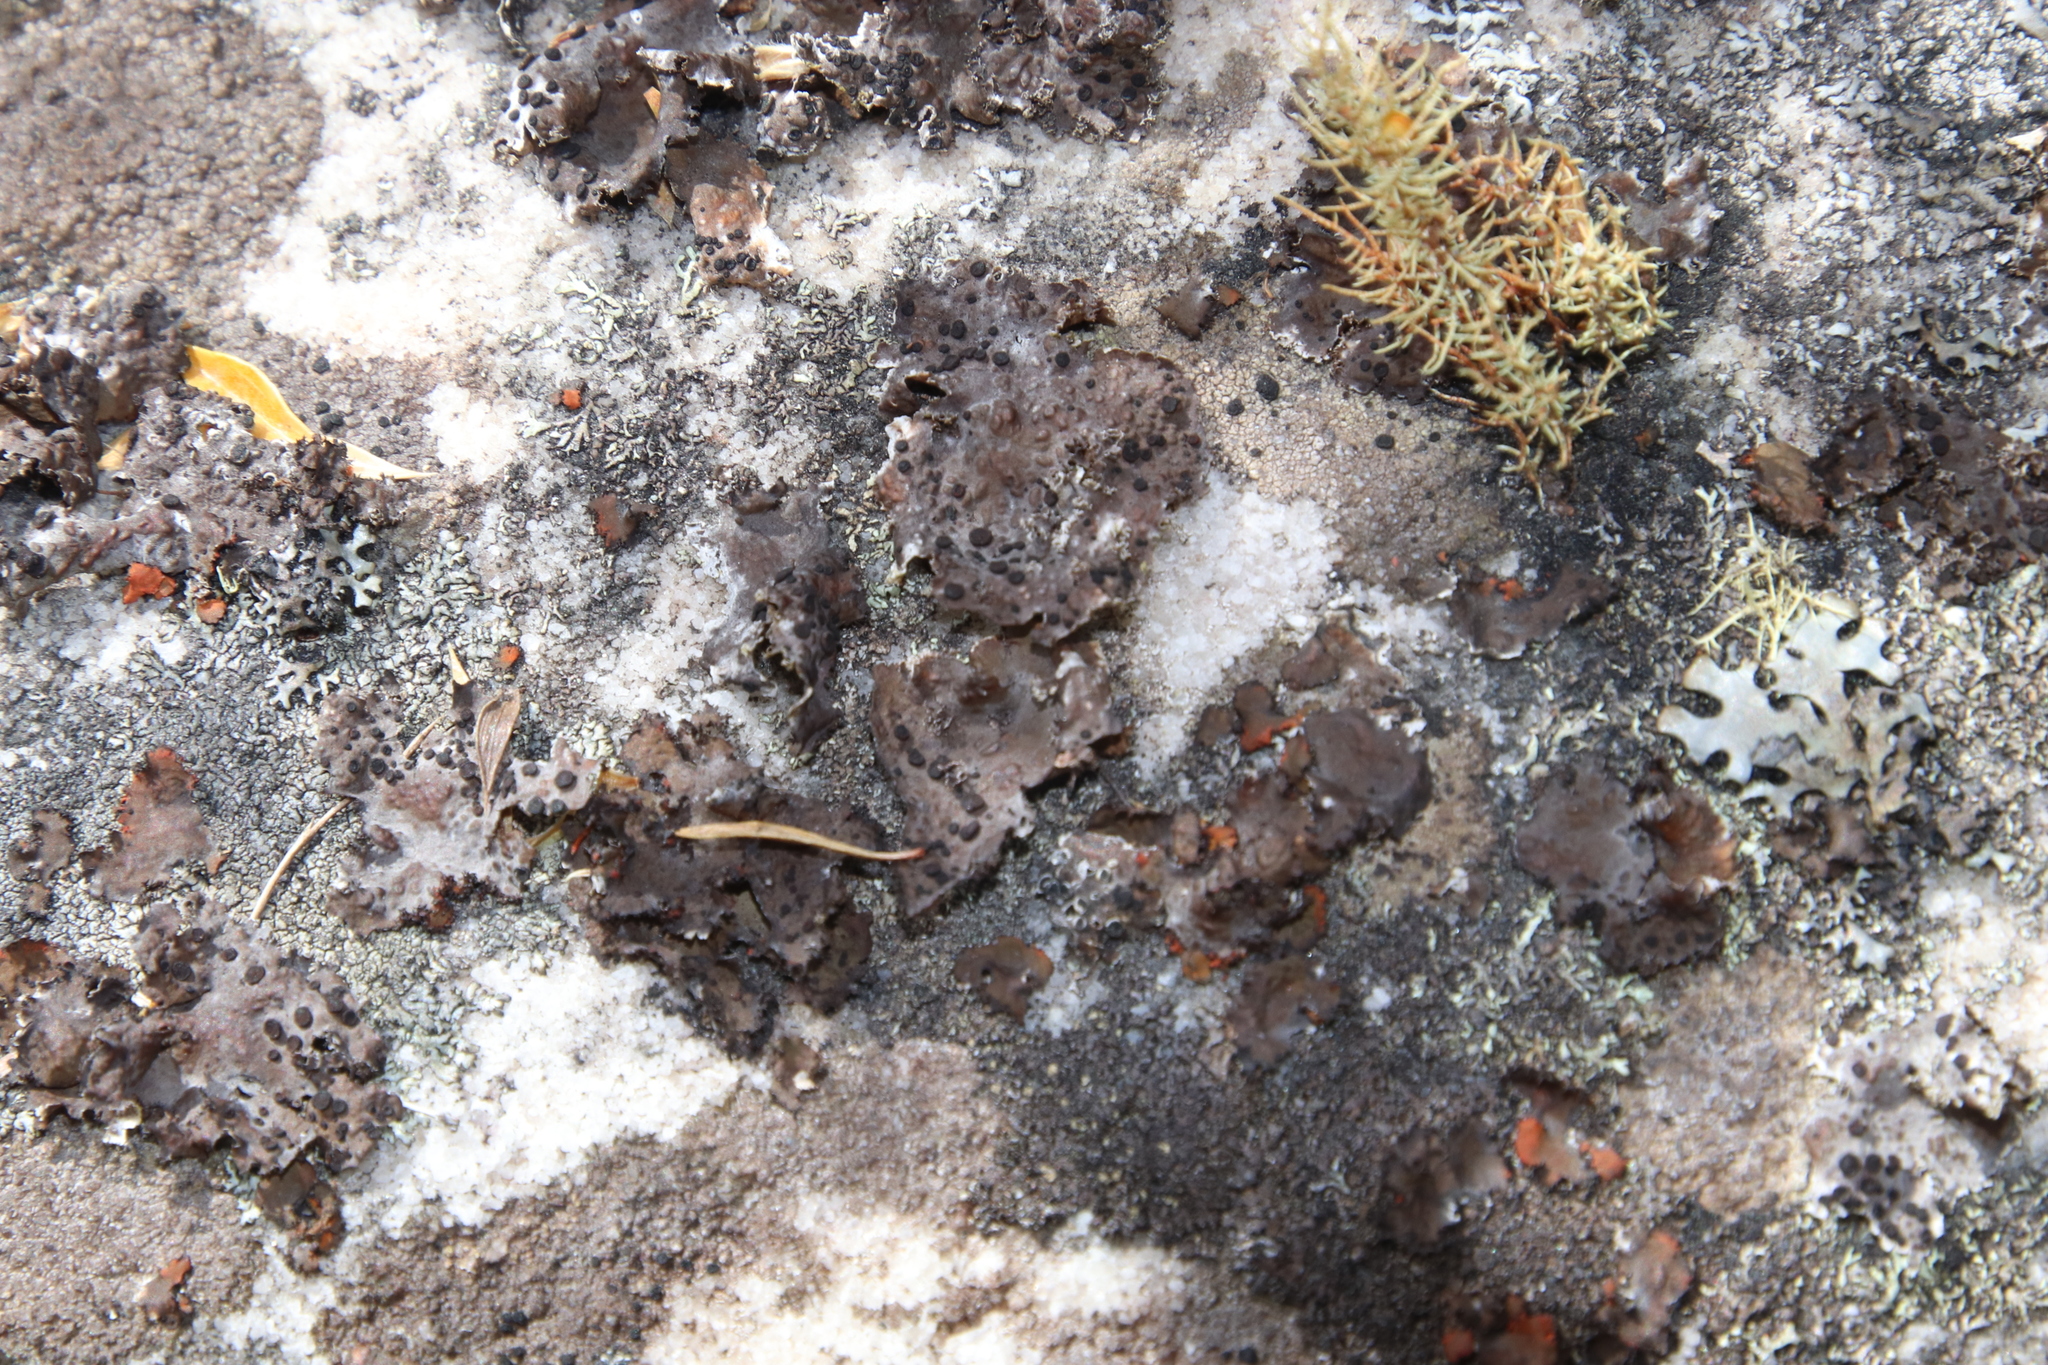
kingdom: Fungi
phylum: Ascomycota
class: Lecanoromycetes
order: Umbilicariales
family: Umbilicariaceae
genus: Lasallia
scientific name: Lasallia rubiginosa
